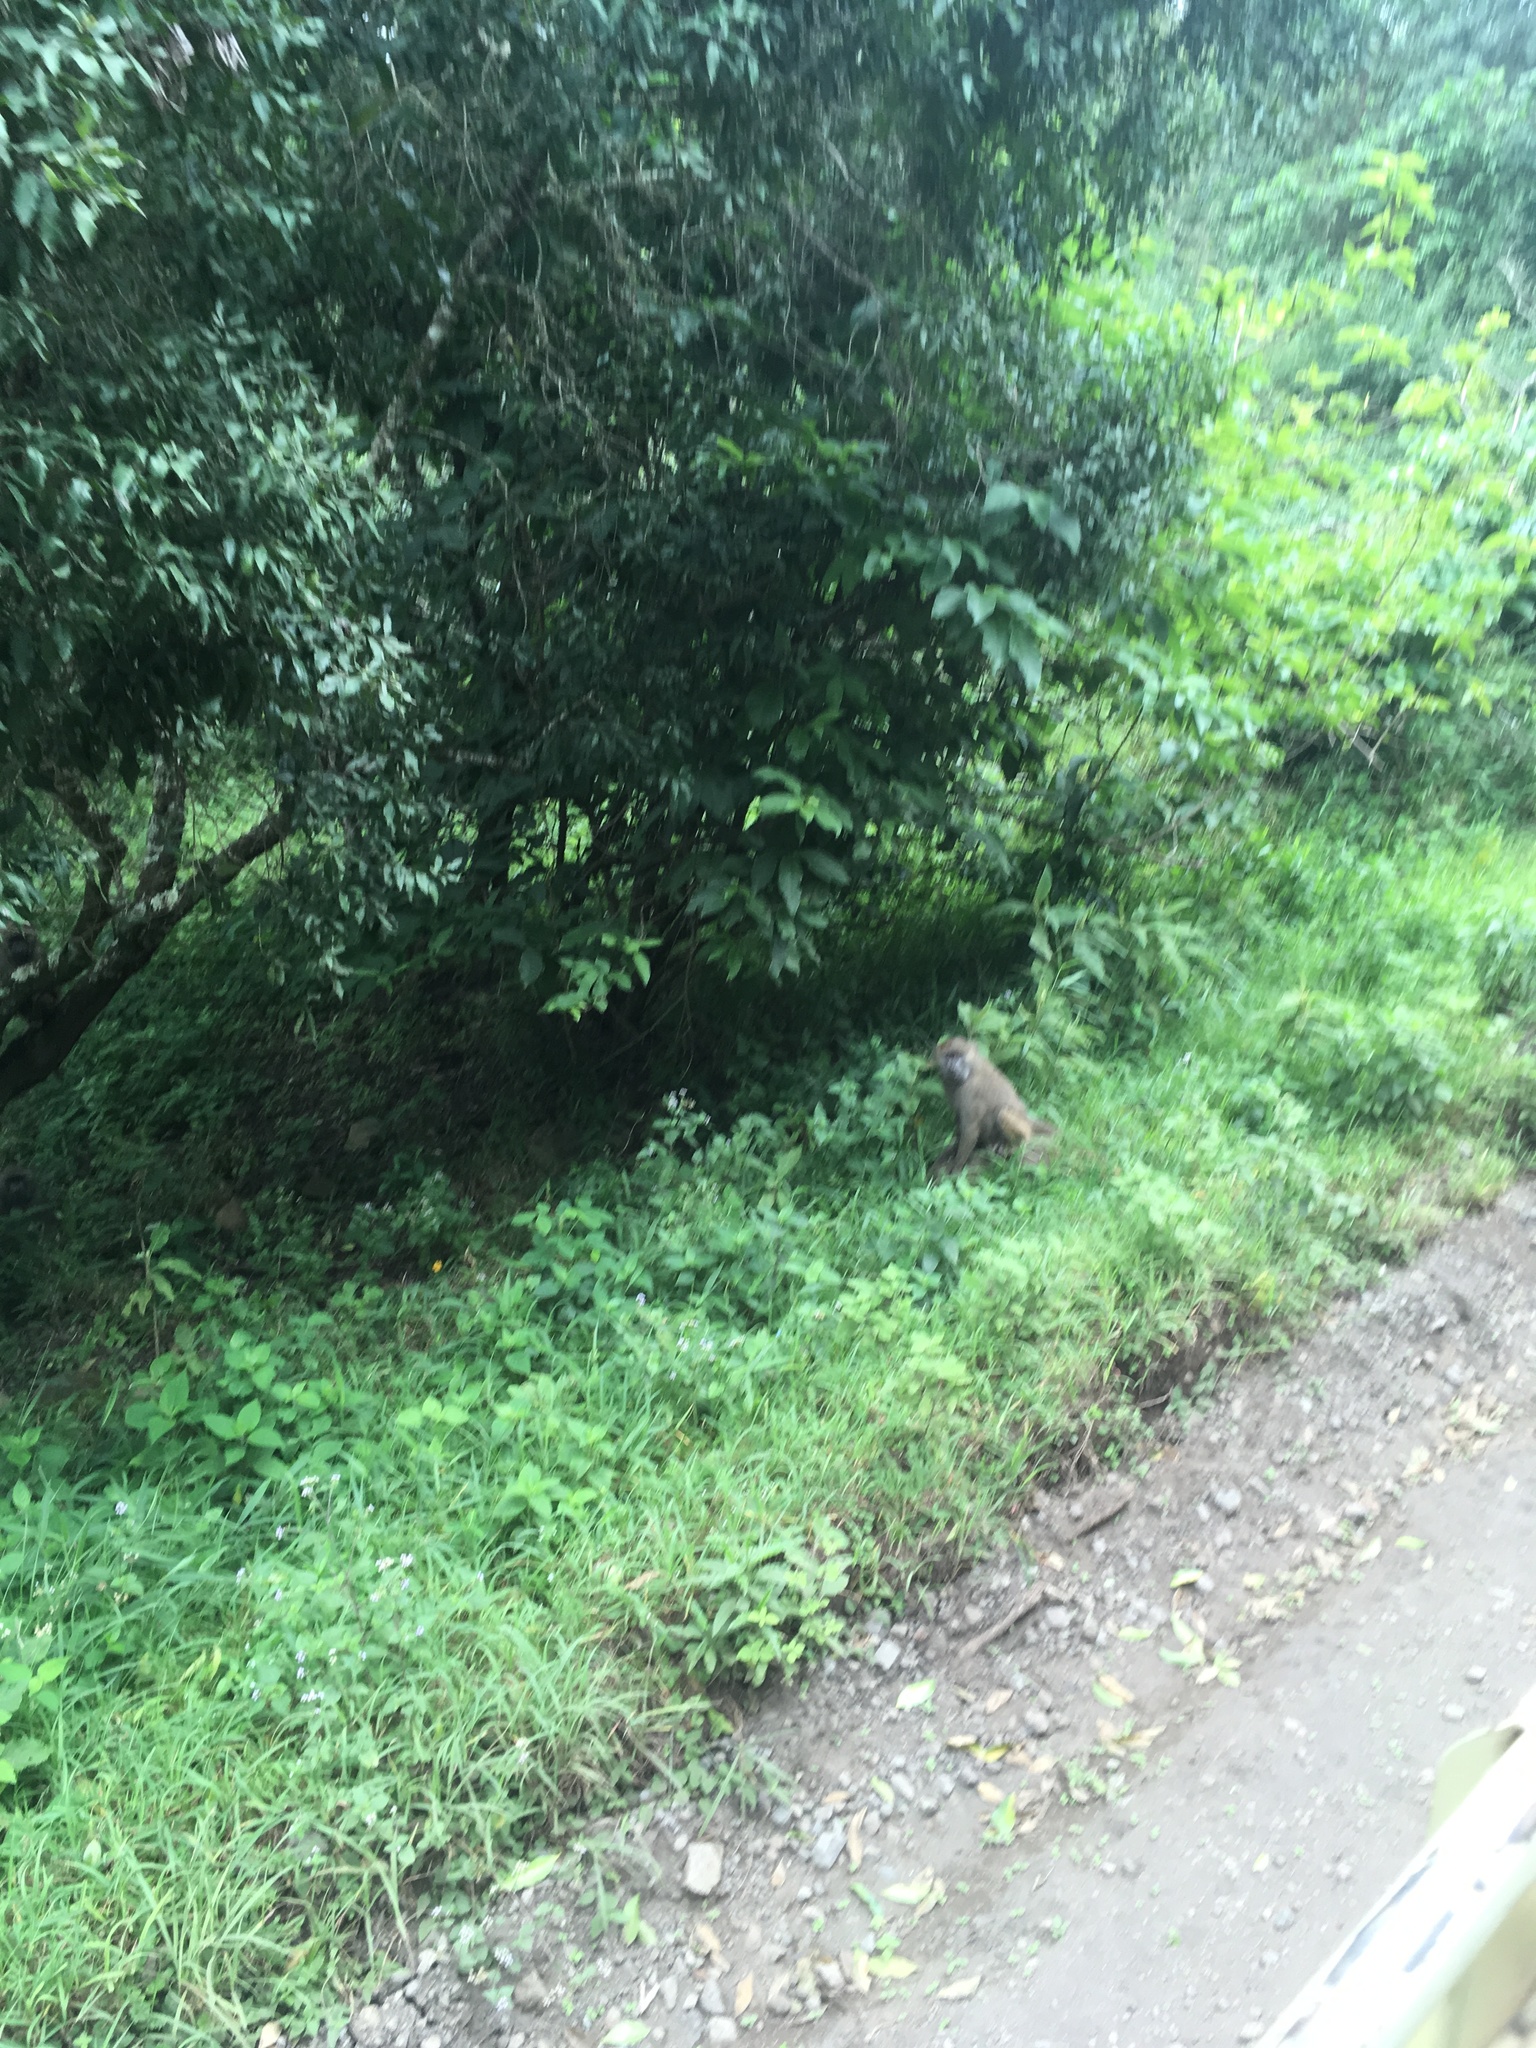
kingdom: Animalia
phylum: Chordata
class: Mammalia
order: Primates
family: Cercopithecidae
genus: Papio
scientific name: Papio anubis
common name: Olive baboon
